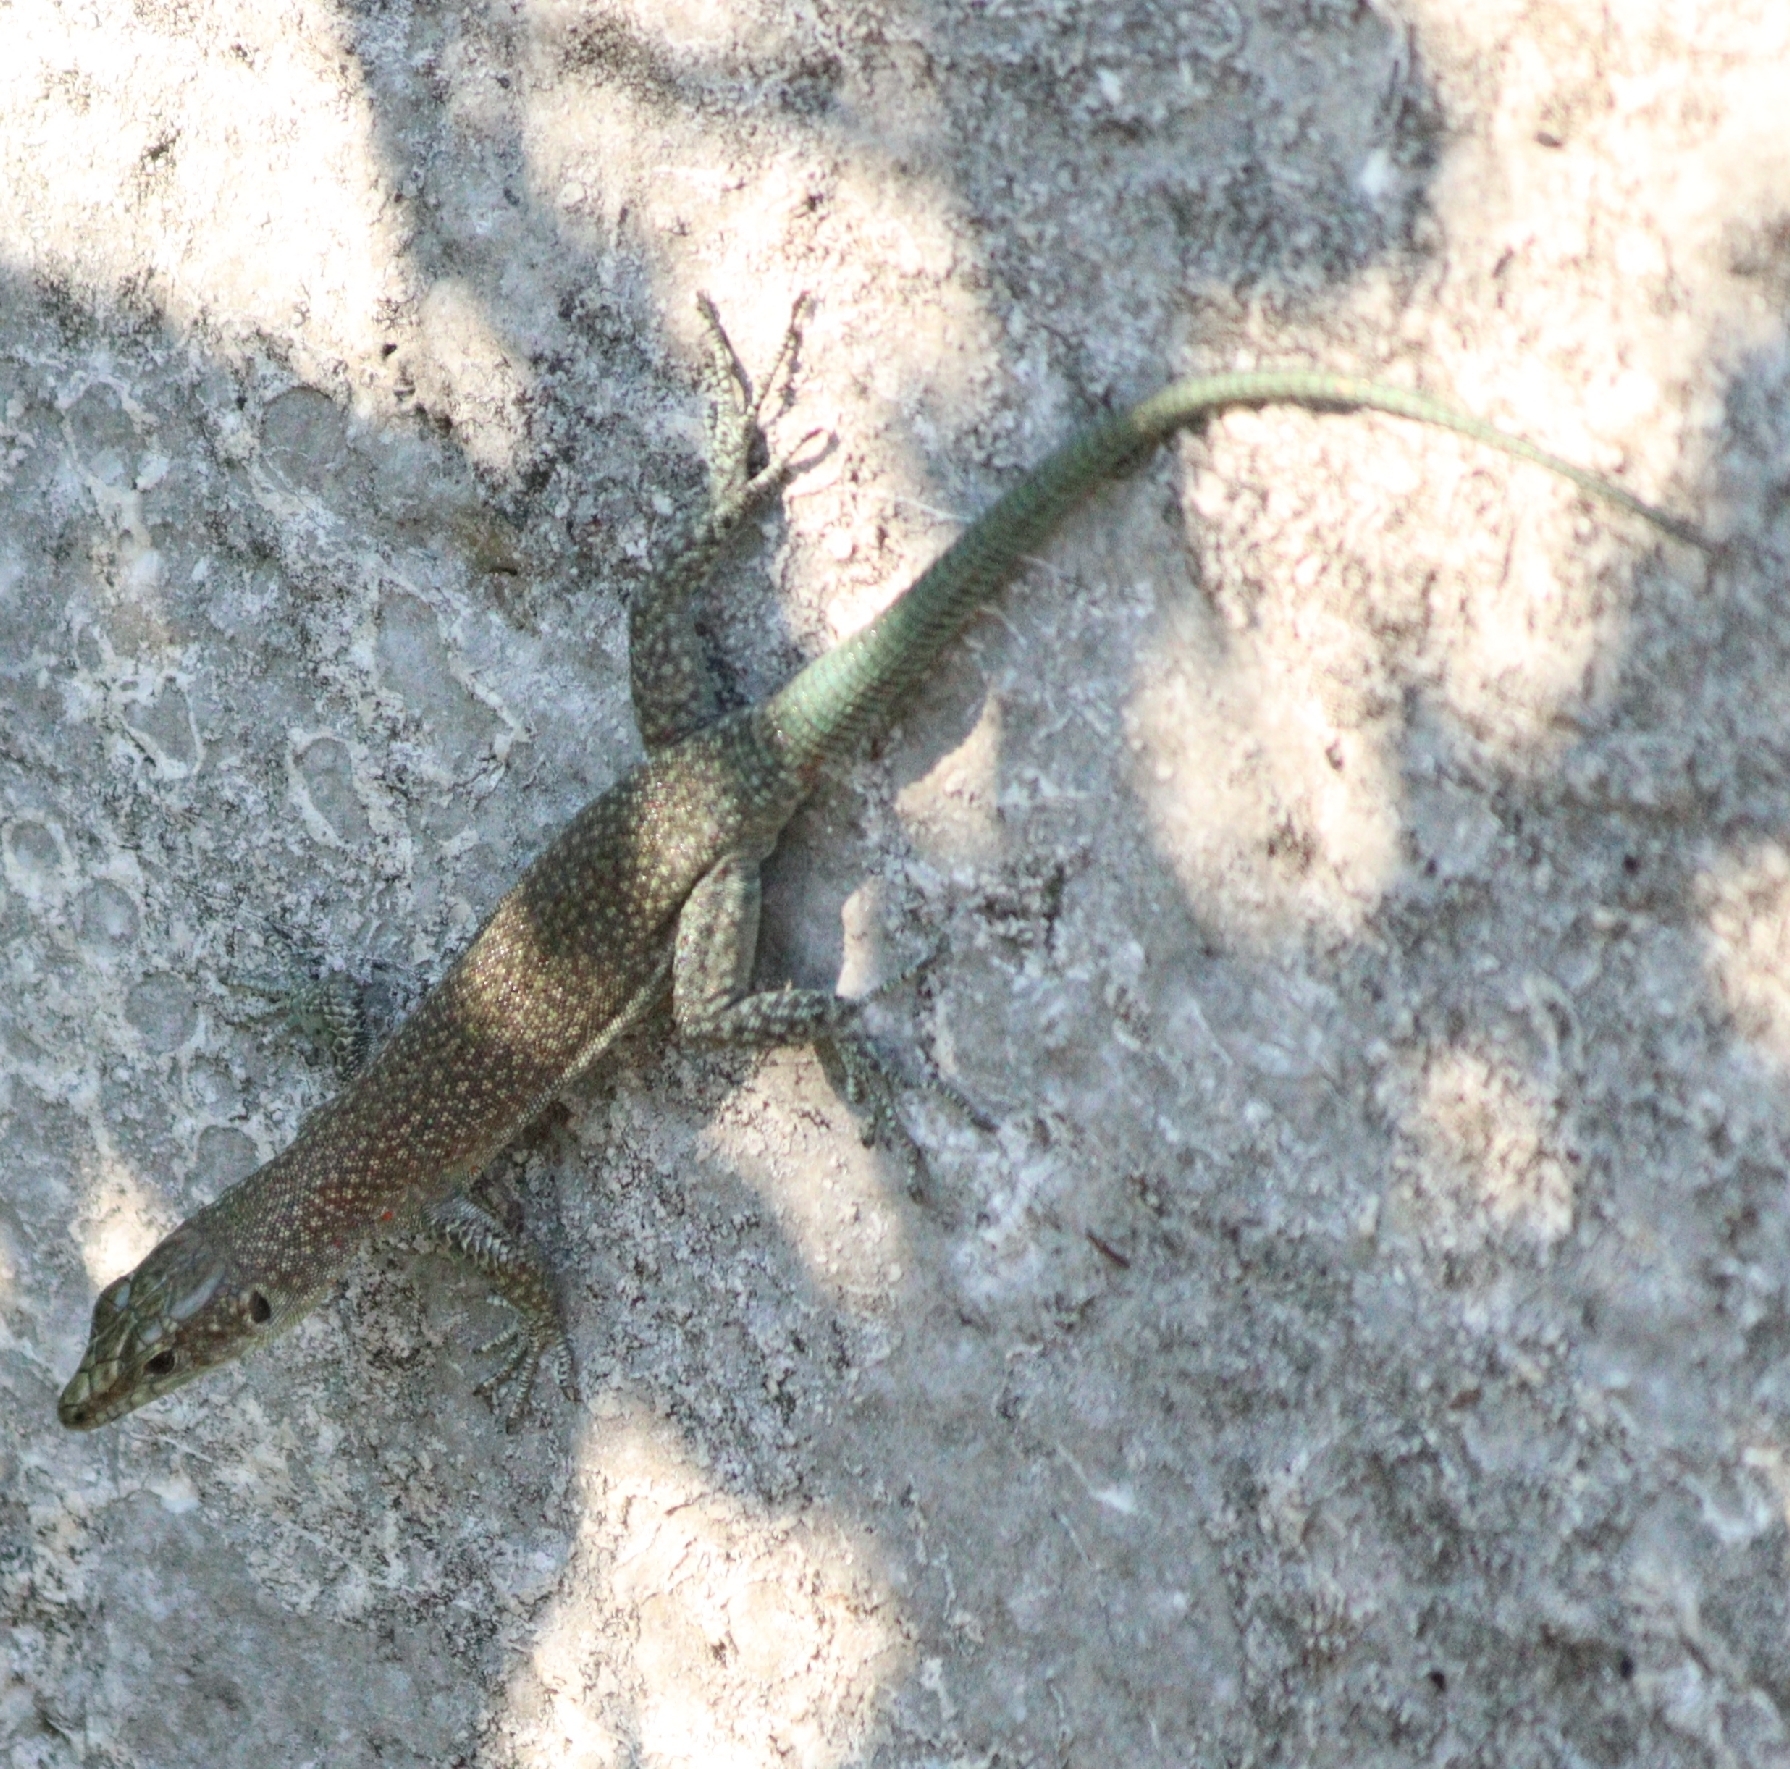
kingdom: Animalia
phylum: Chordata
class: Squamata
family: Lacertidae
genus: Dalmatolacerta
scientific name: Dalmatolacerta oxycephala
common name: Sharp-snouted rock lizard
